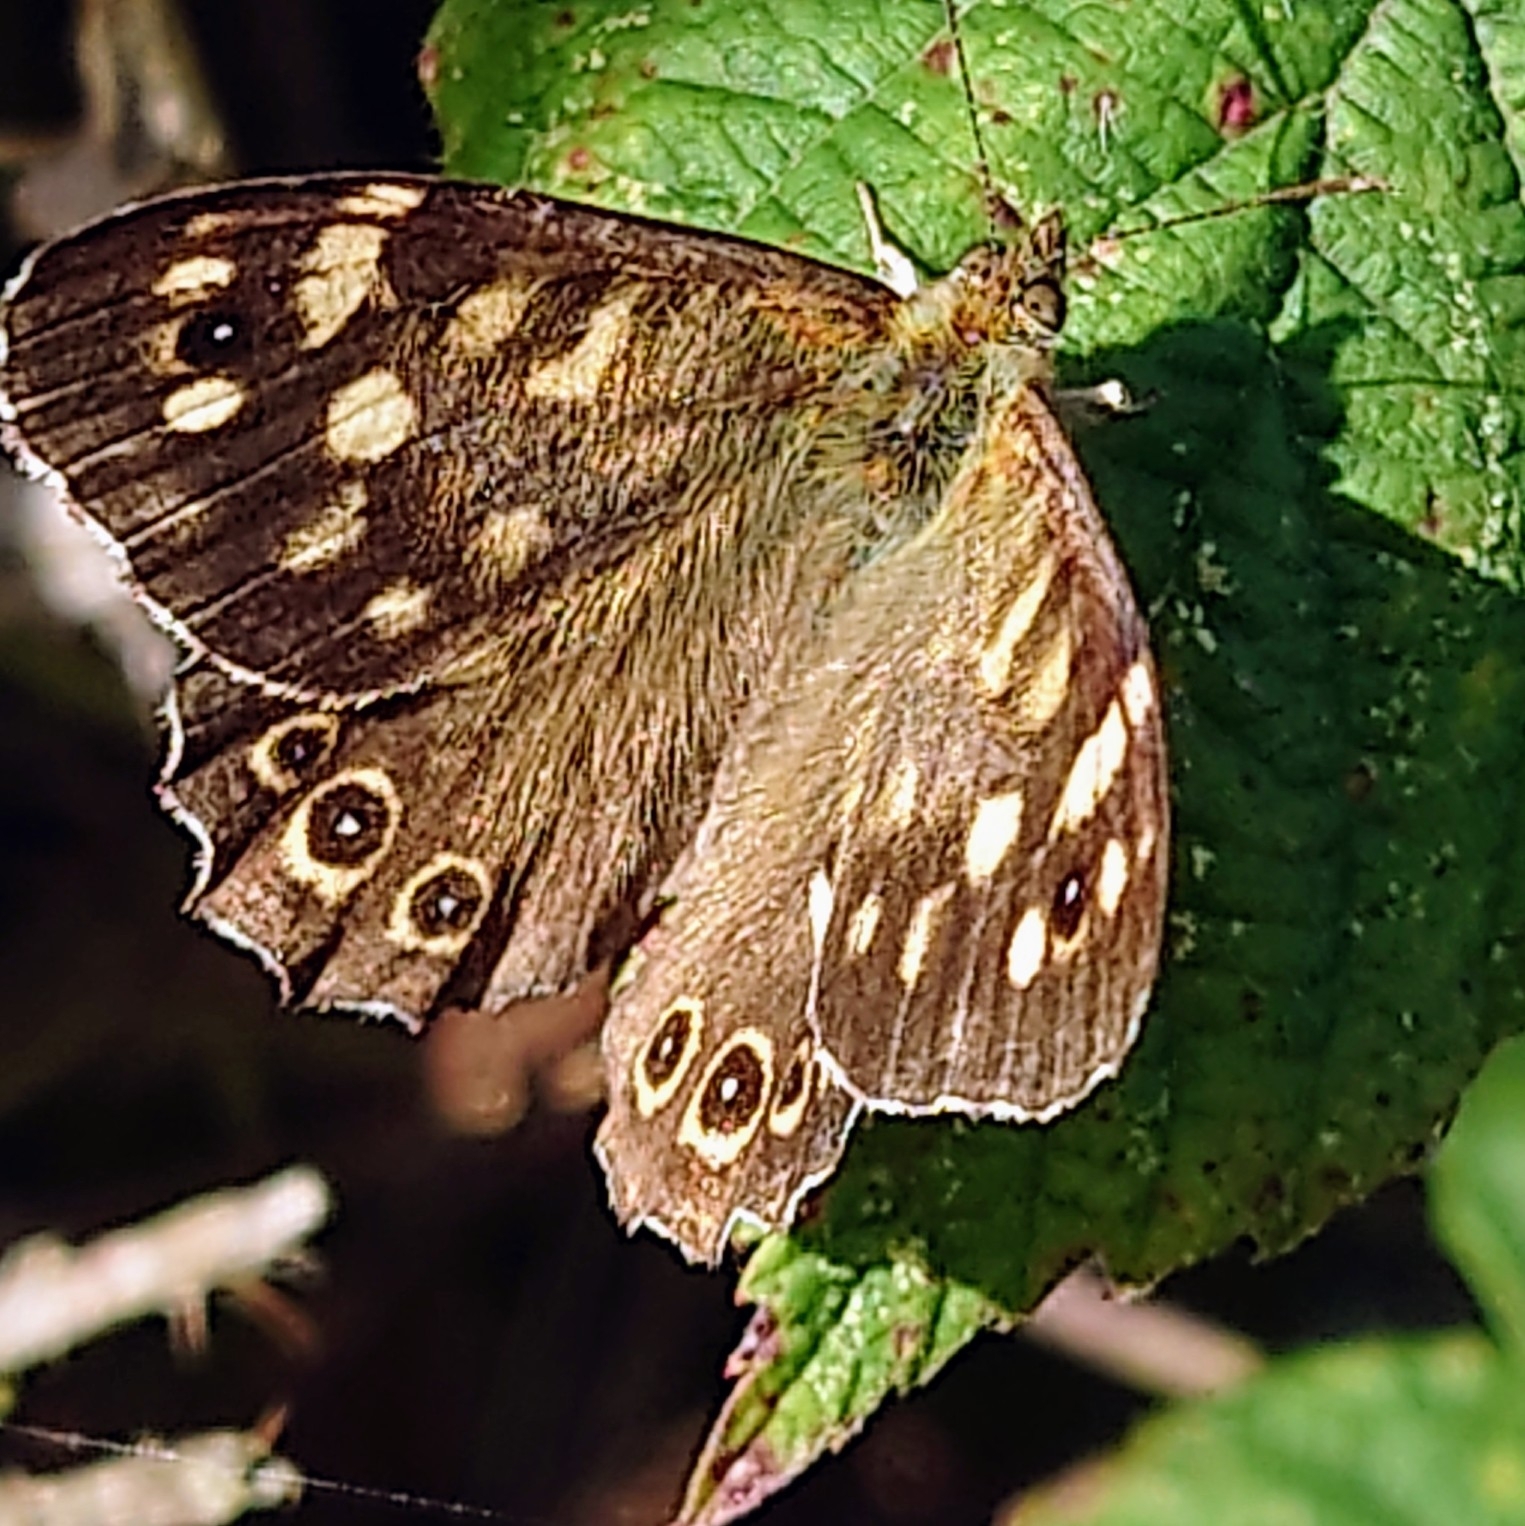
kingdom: Animalia
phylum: Arthropoda
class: Insecta
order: Lepidoptera
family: Nymphalidae
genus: Pararge
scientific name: Pararge aegeria
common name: Speckled wood
